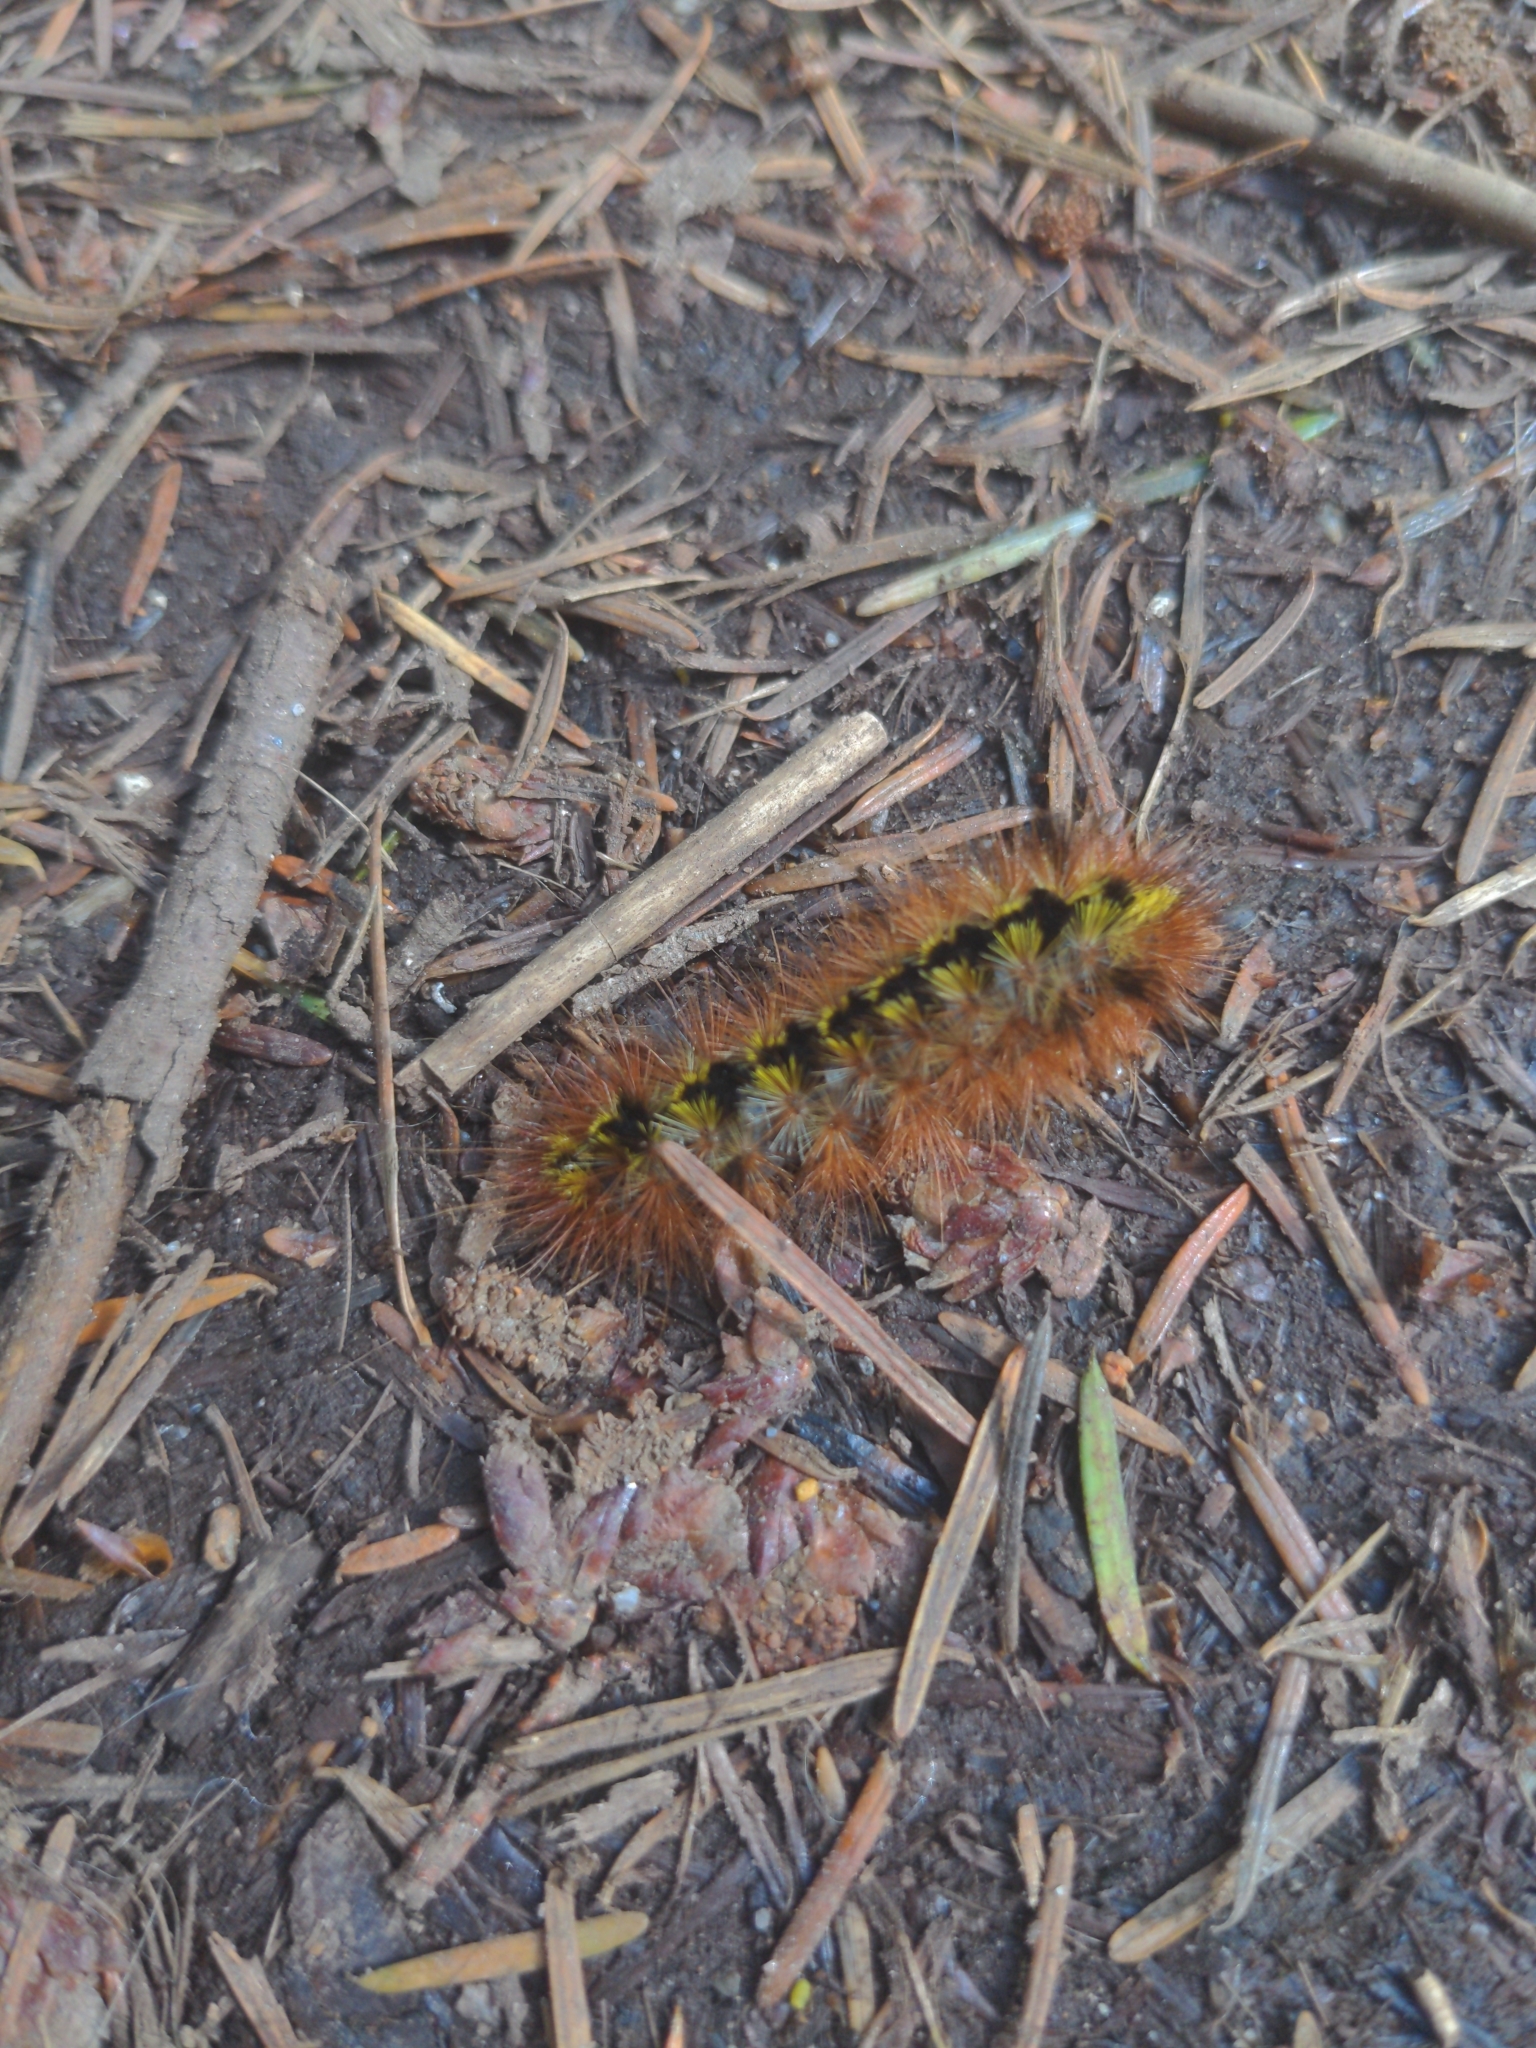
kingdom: Animalia
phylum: Arthropoda
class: Insecta
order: Lepidoptera
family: Erebidae
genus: Lophocampa
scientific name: Lophocampa argentata
